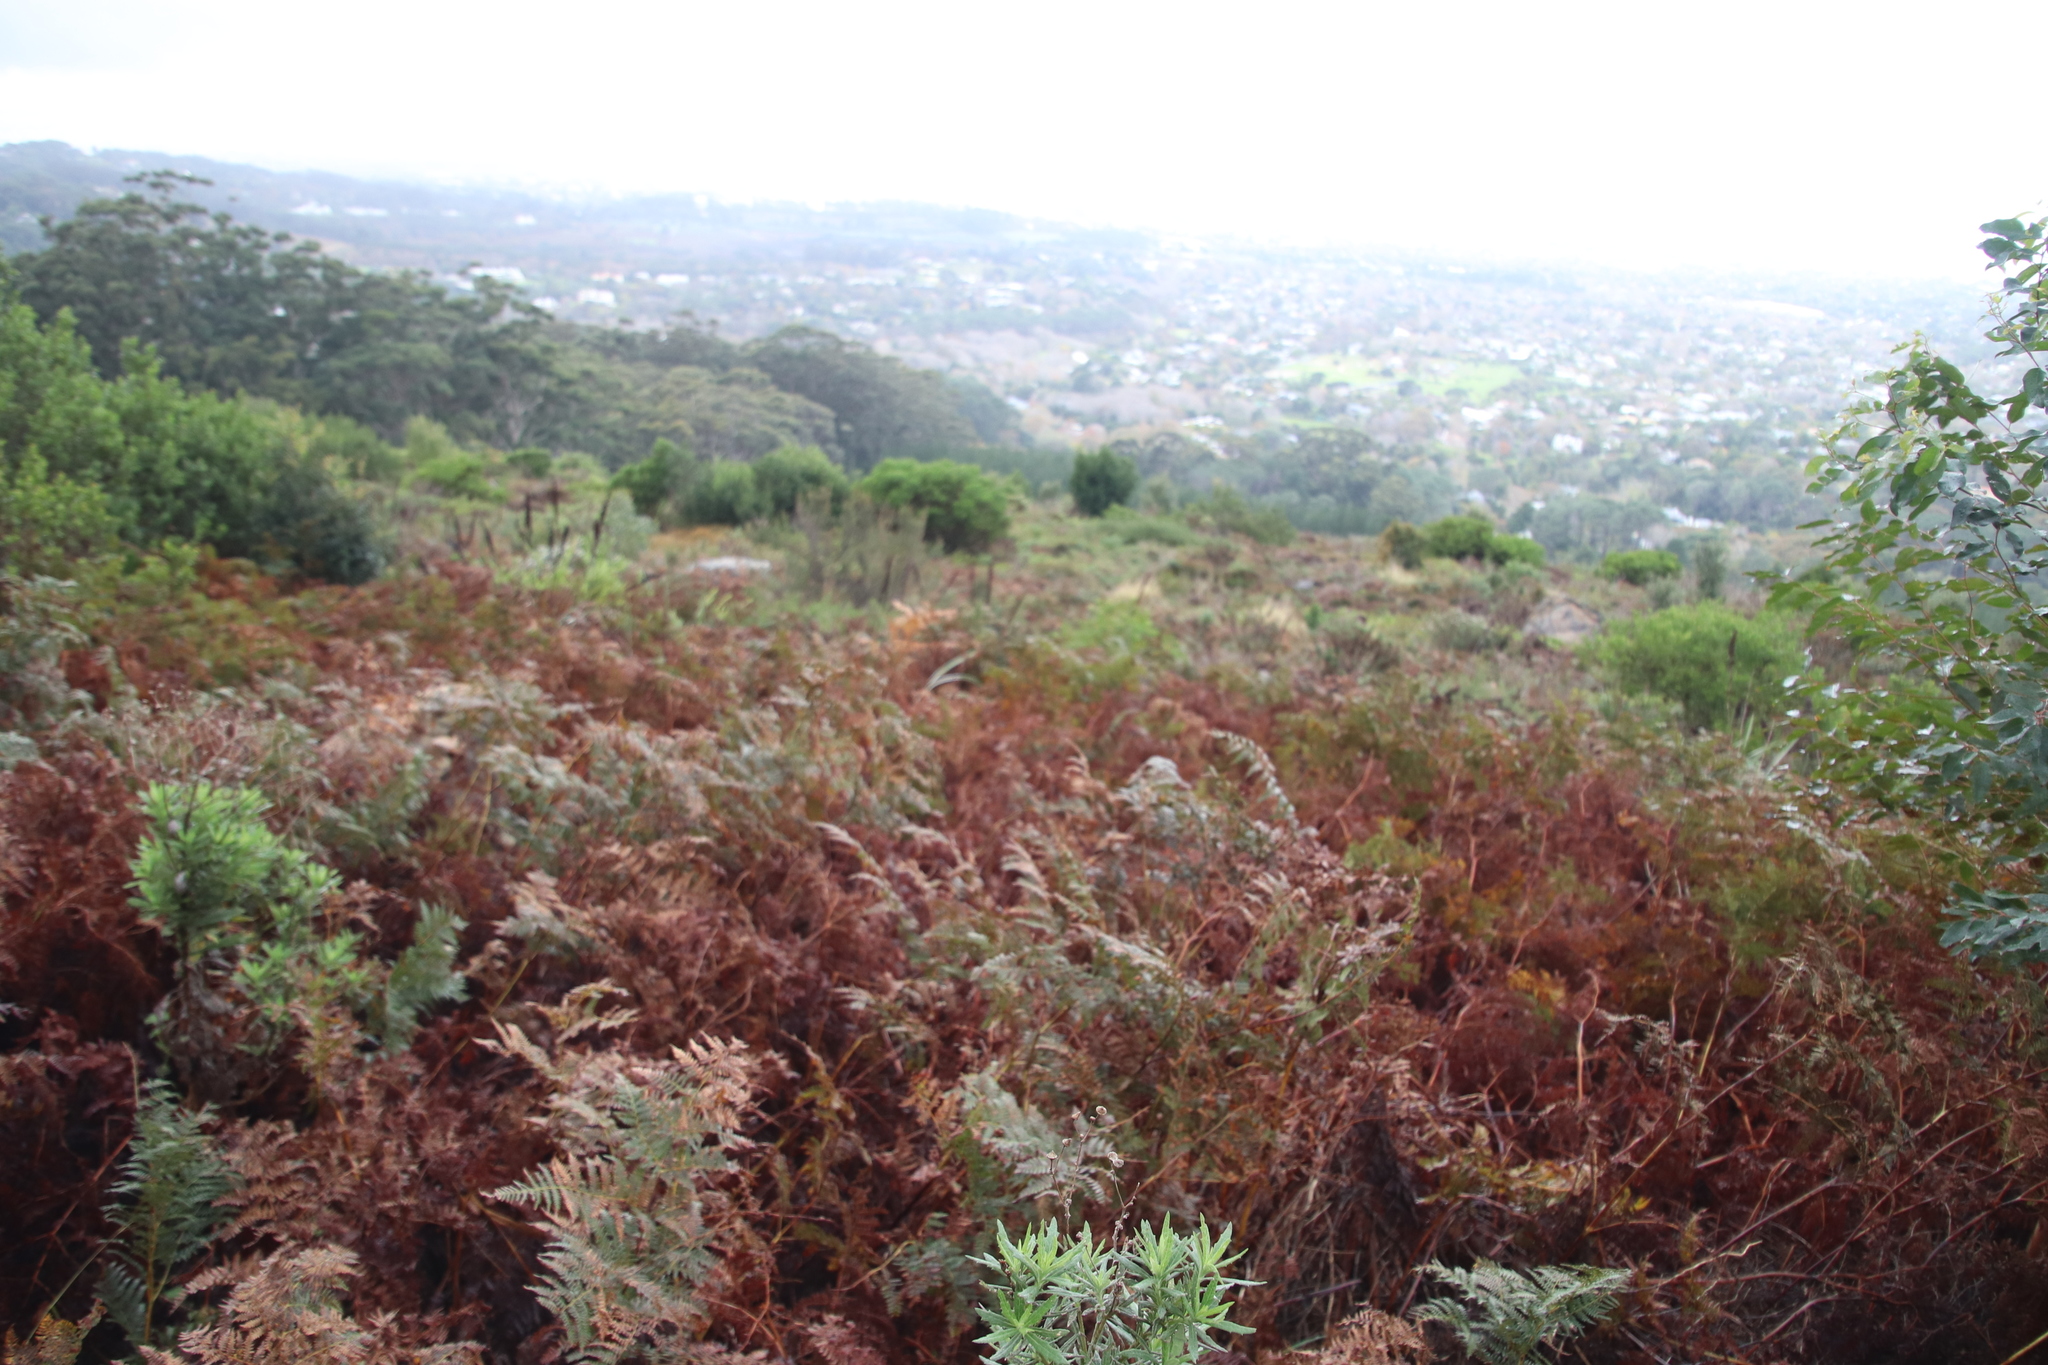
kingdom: Plantae
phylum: Tracheophyta
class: Polypodiopsida
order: Polypodiales
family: Dennstaedtiaceae
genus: Pteridium
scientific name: Pteridium aquilinum
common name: Bracken
